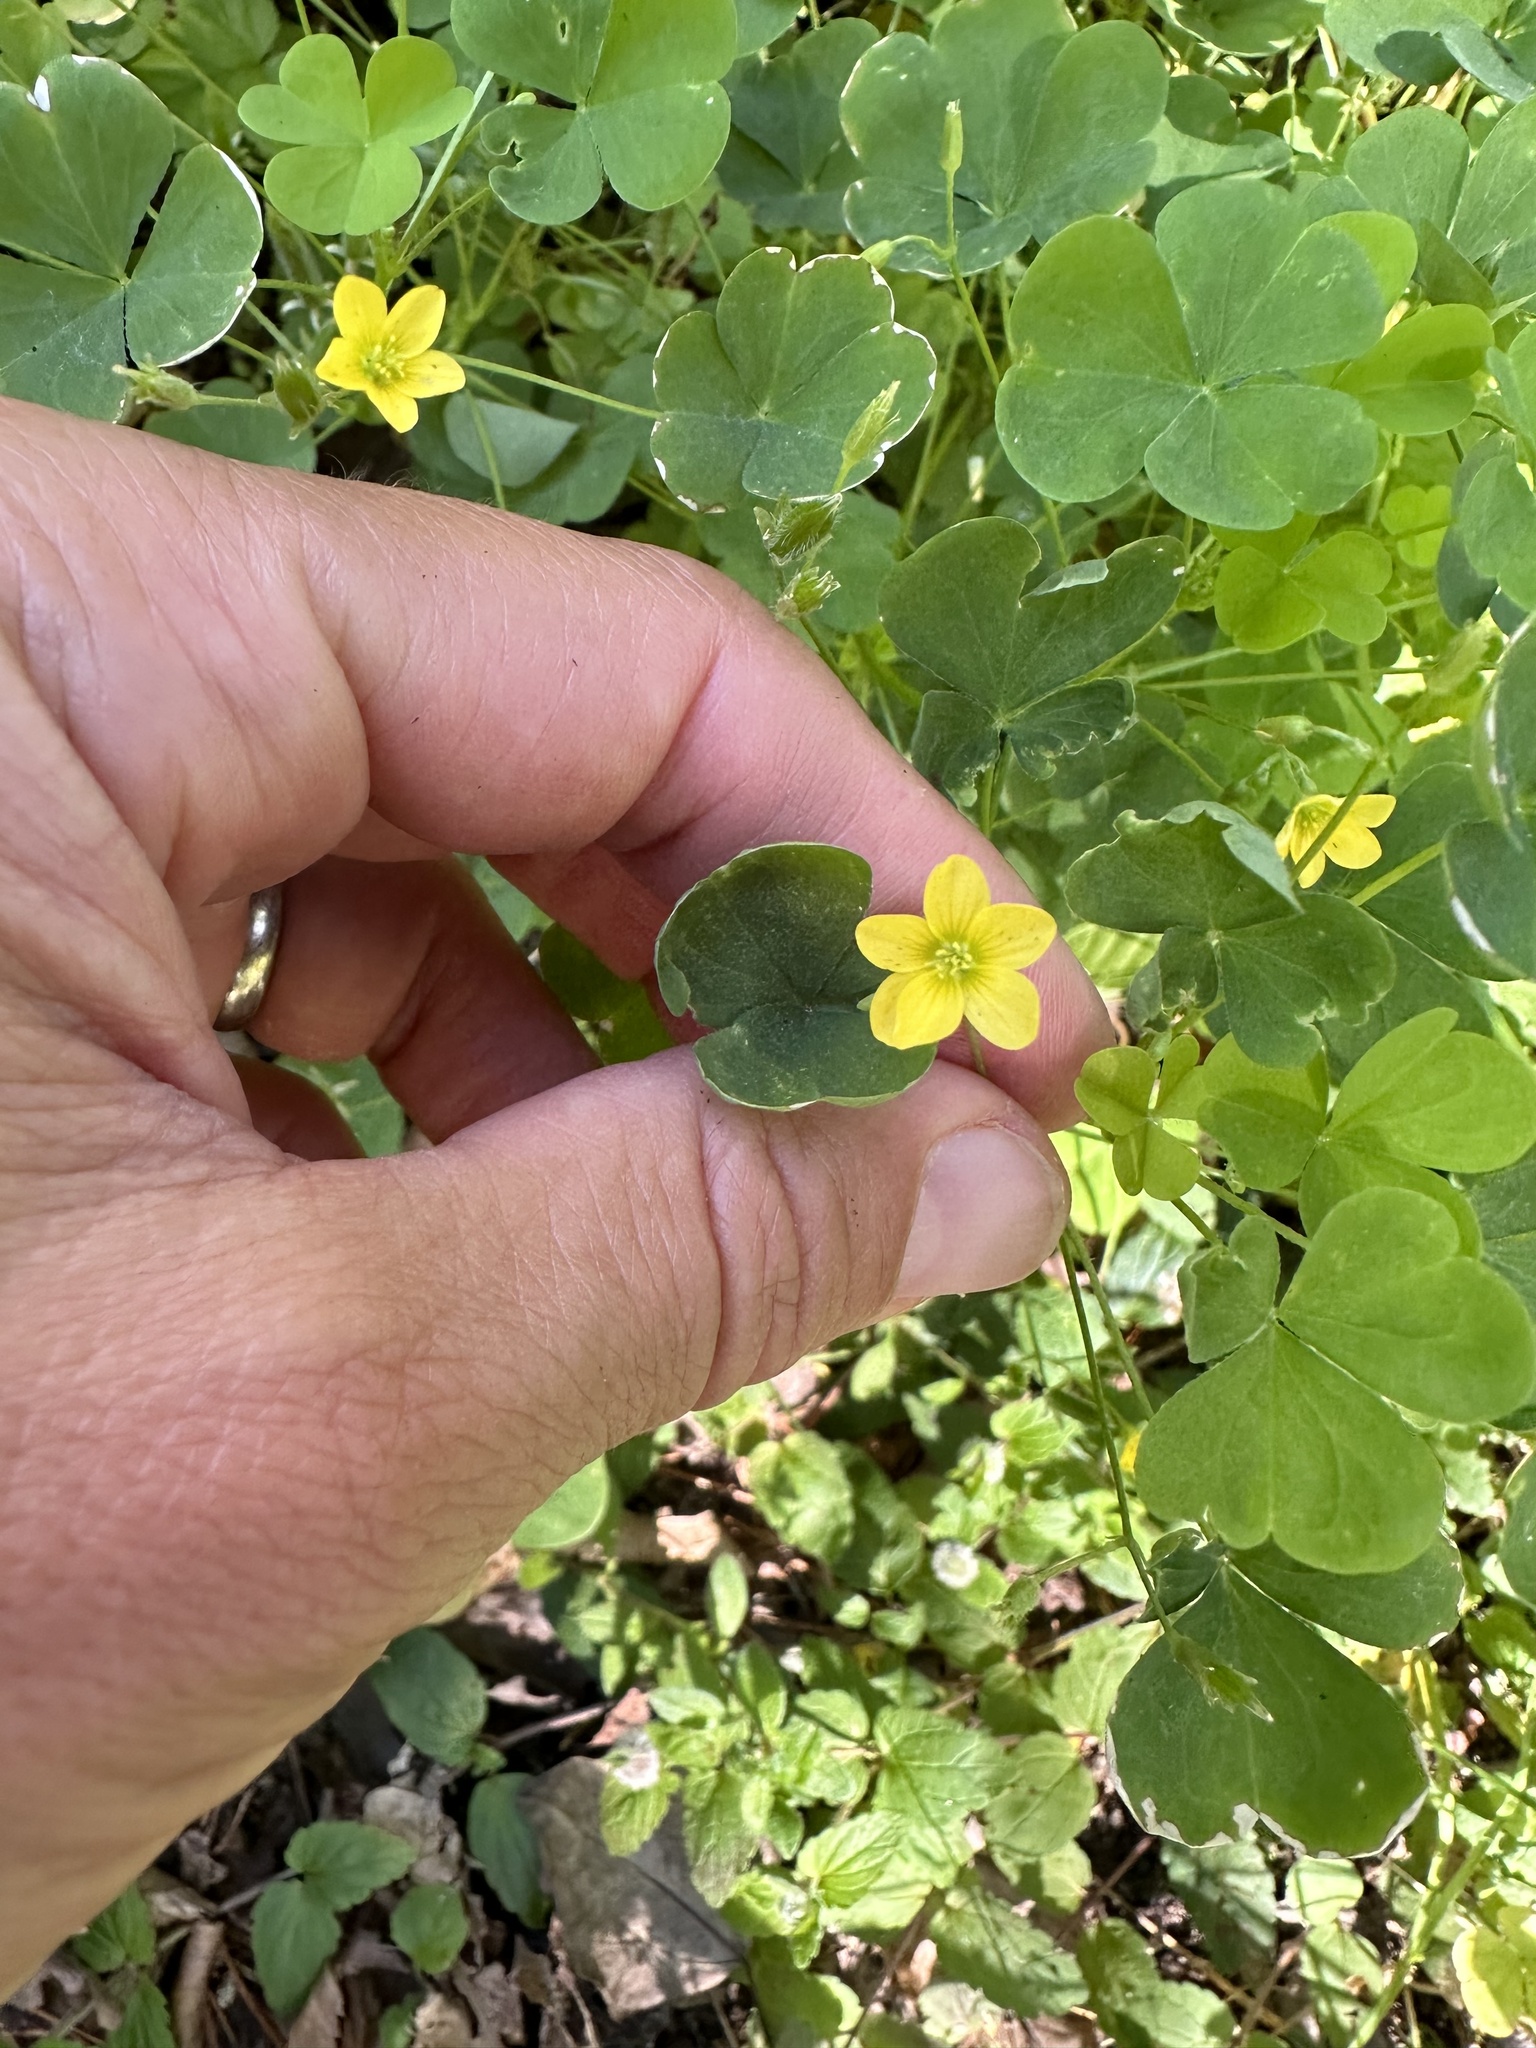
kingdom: Plantae
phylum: Tracheophyta
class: Magnoliopsida
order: Oxalidales
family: Oxalidaceae
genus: Oxalis
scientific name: Oxalis stricta
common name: Upright yellow-sorrel
